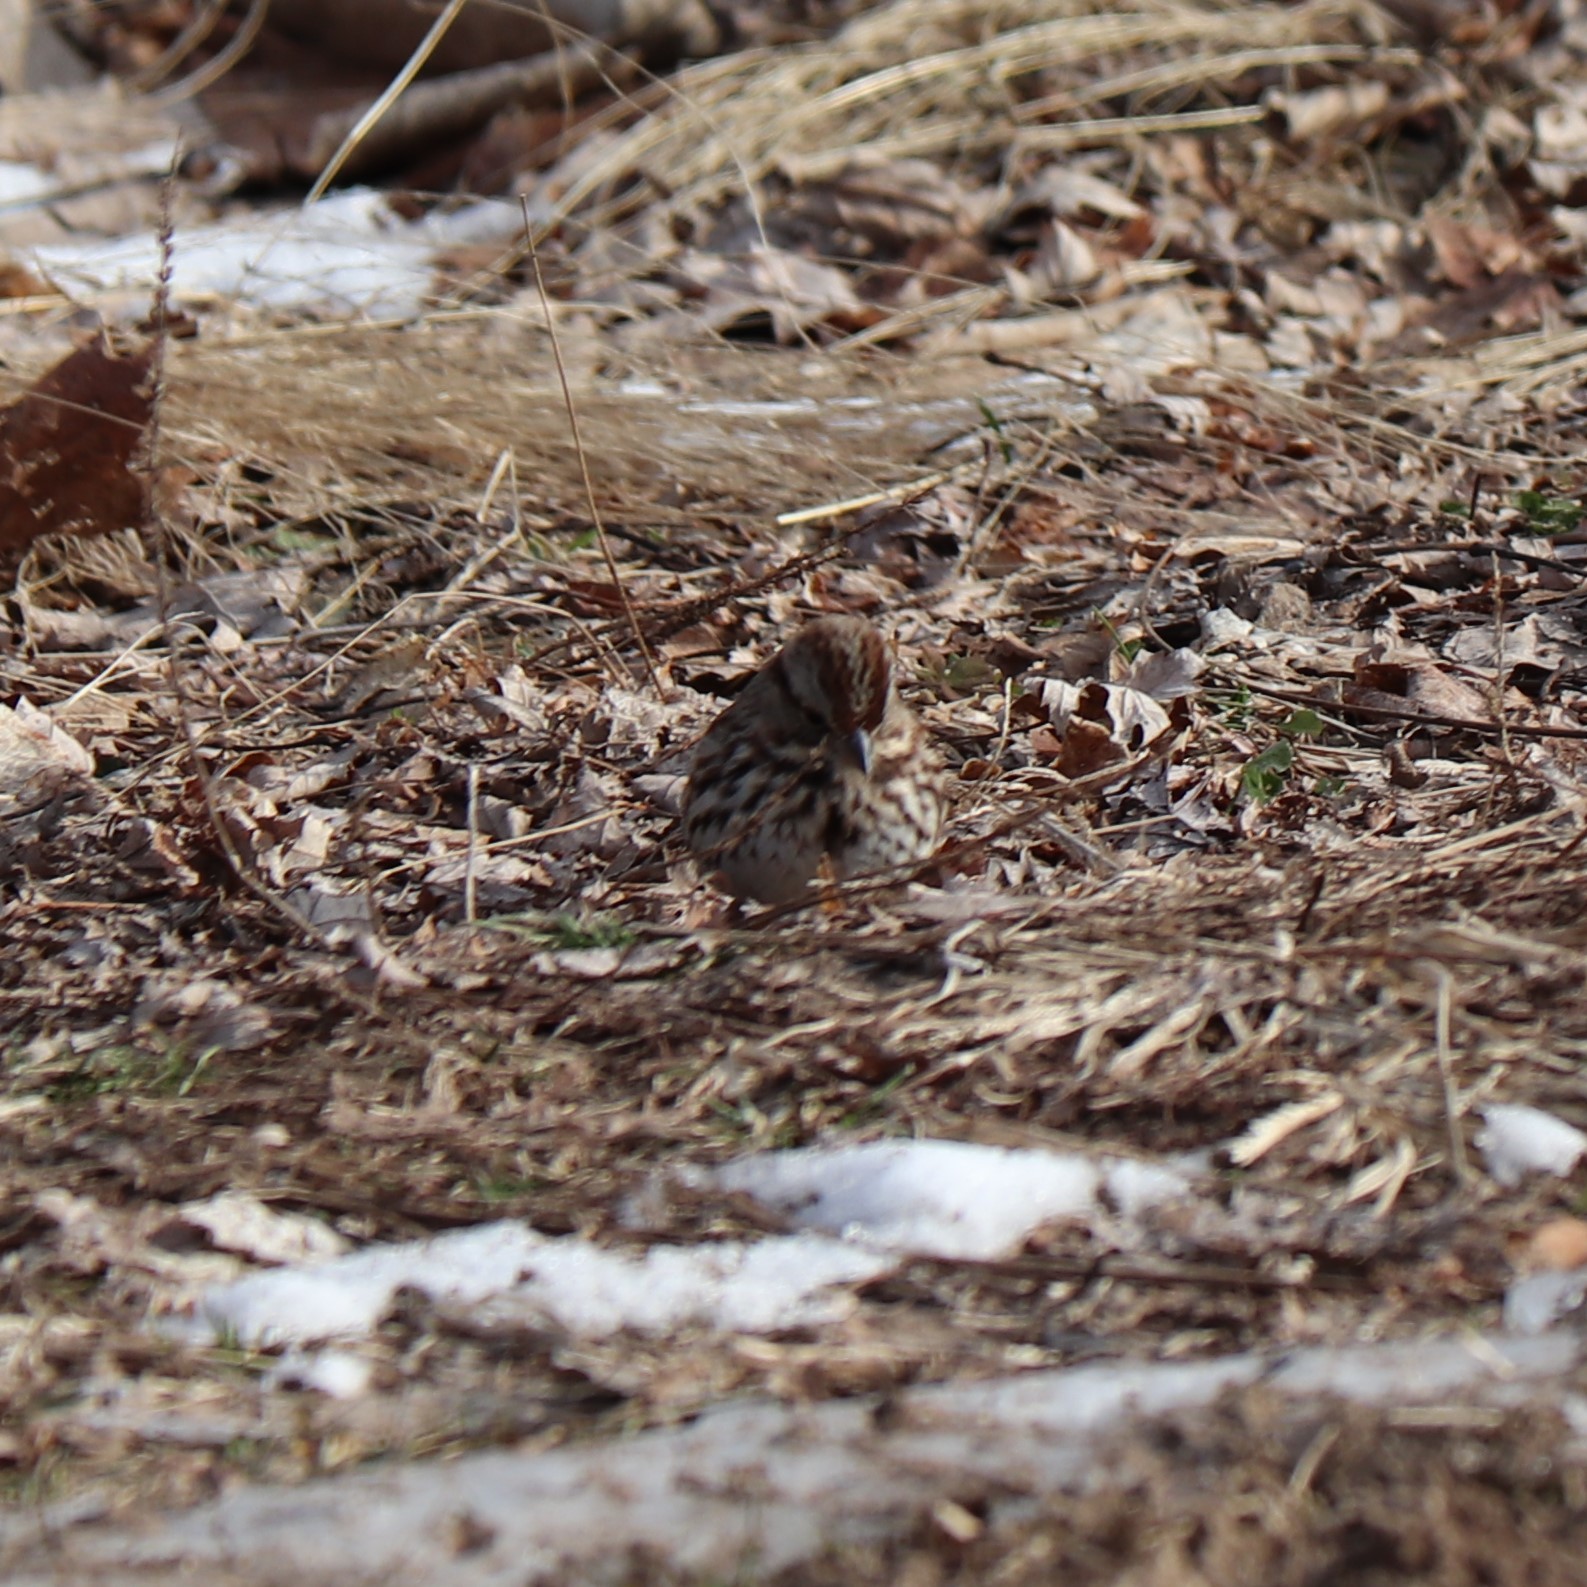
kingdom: Animalia
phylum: Chordata
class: Aves
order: Passeriformes
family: Passerellidae
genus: Melospiza
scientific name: Melospiza melodia
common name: Song sparrow
